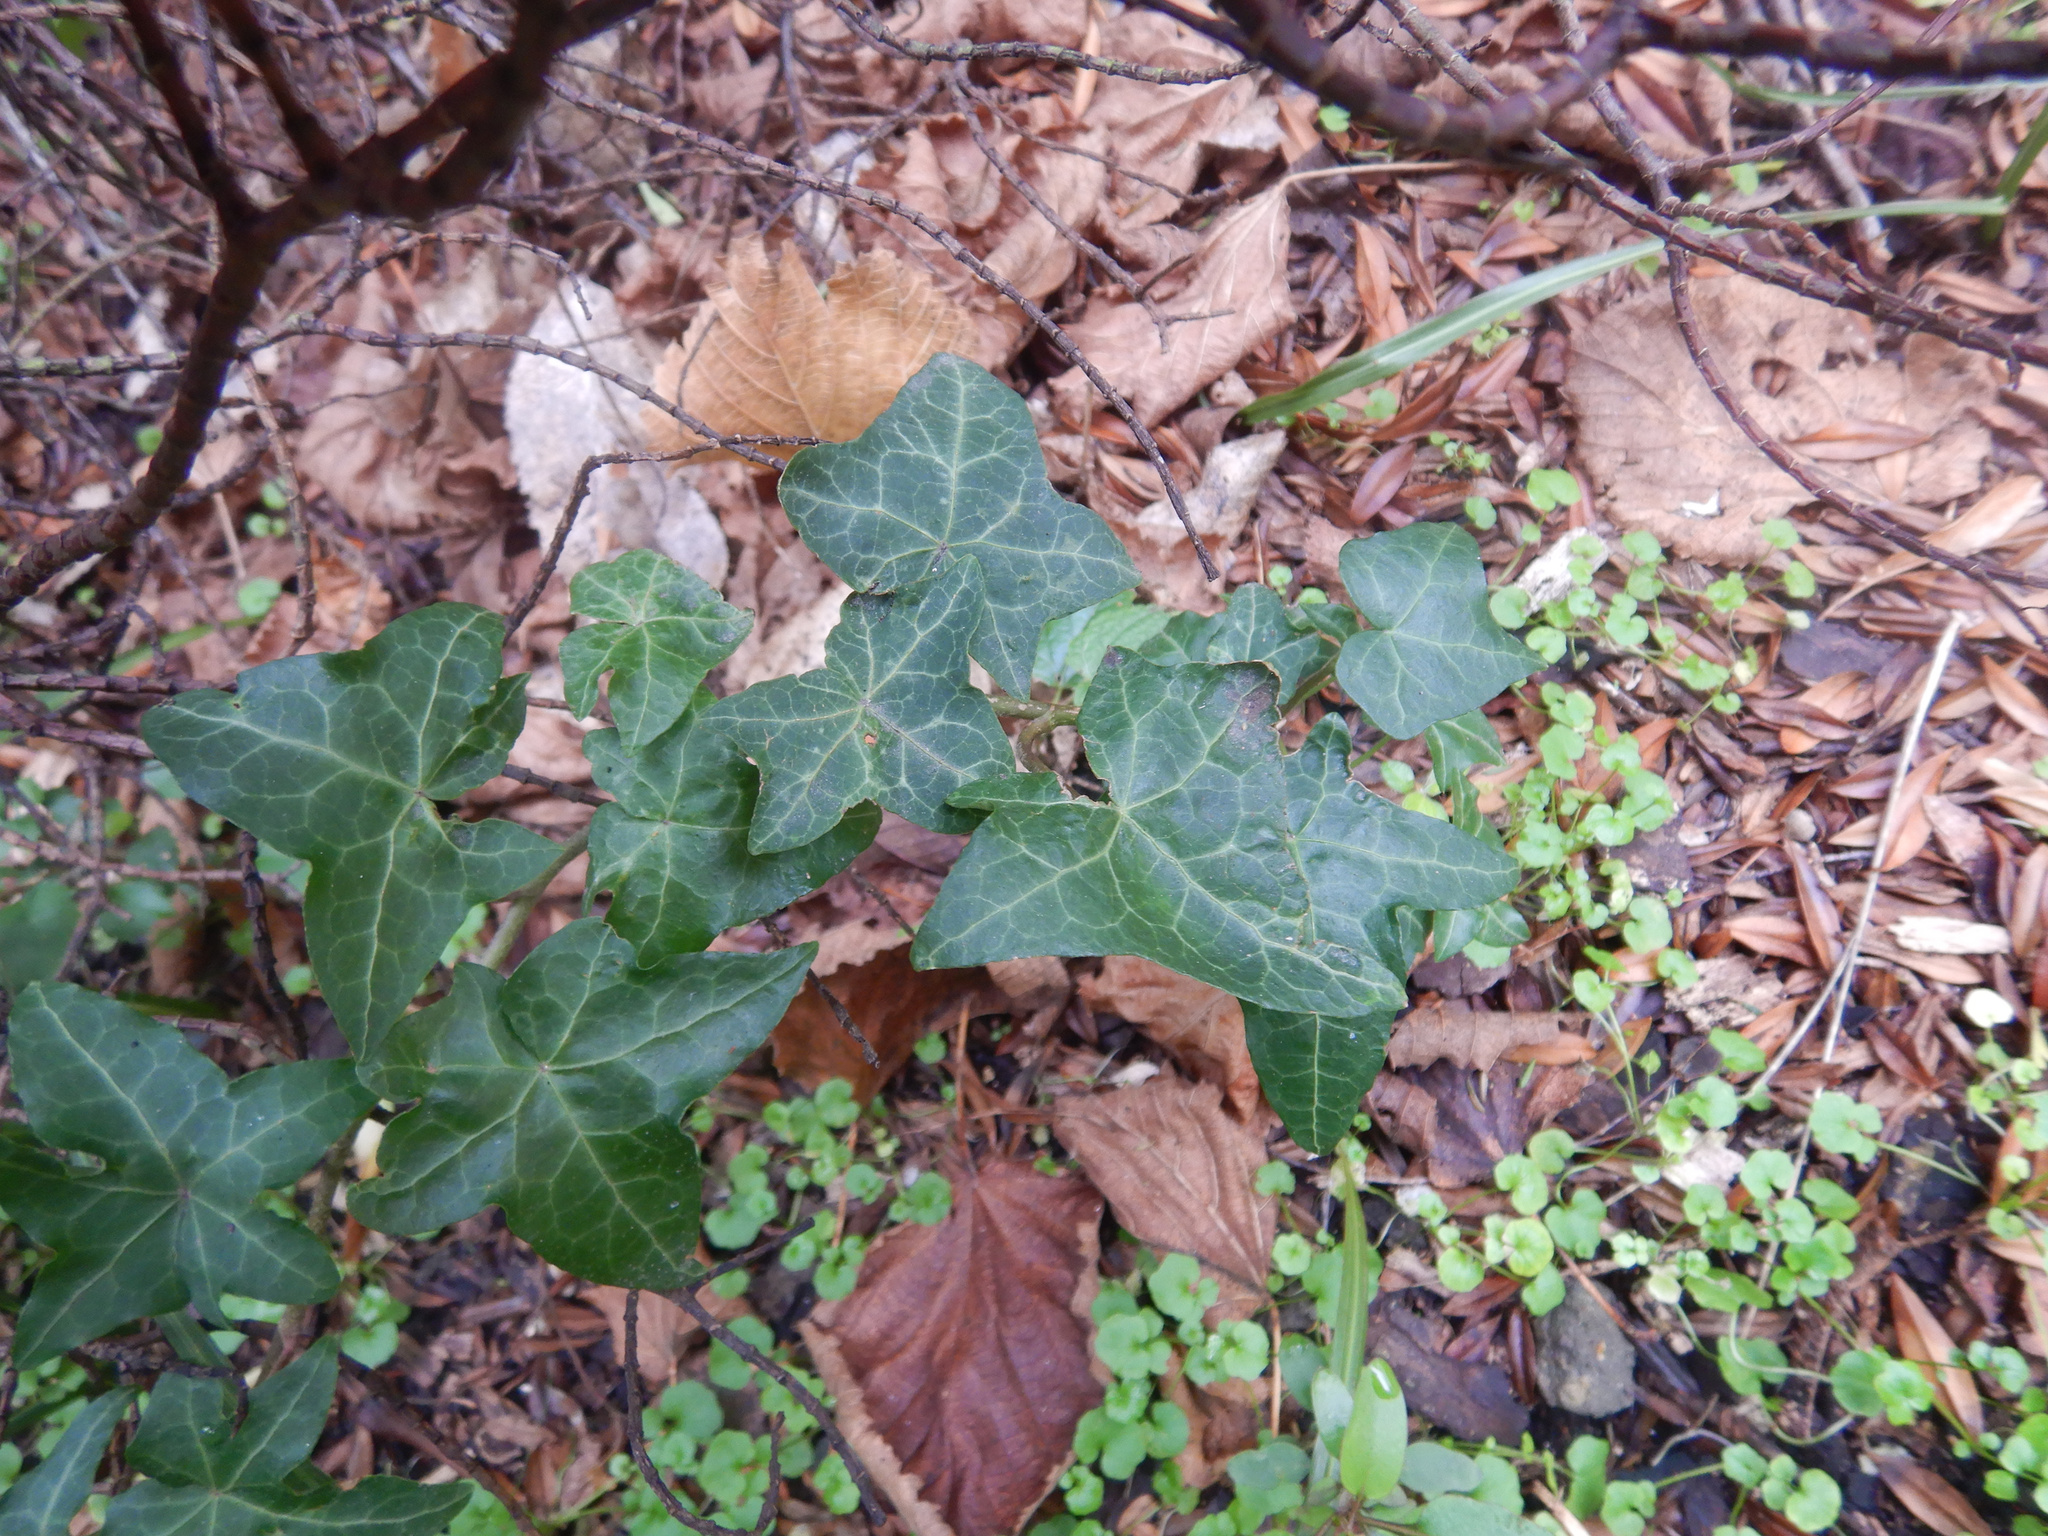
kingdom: Plantae
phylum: Tracheophyta
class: Magnoliopsida
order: Apiales
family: Araliaceae
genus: Hedera
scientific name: Hedera helix
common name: Ivy
